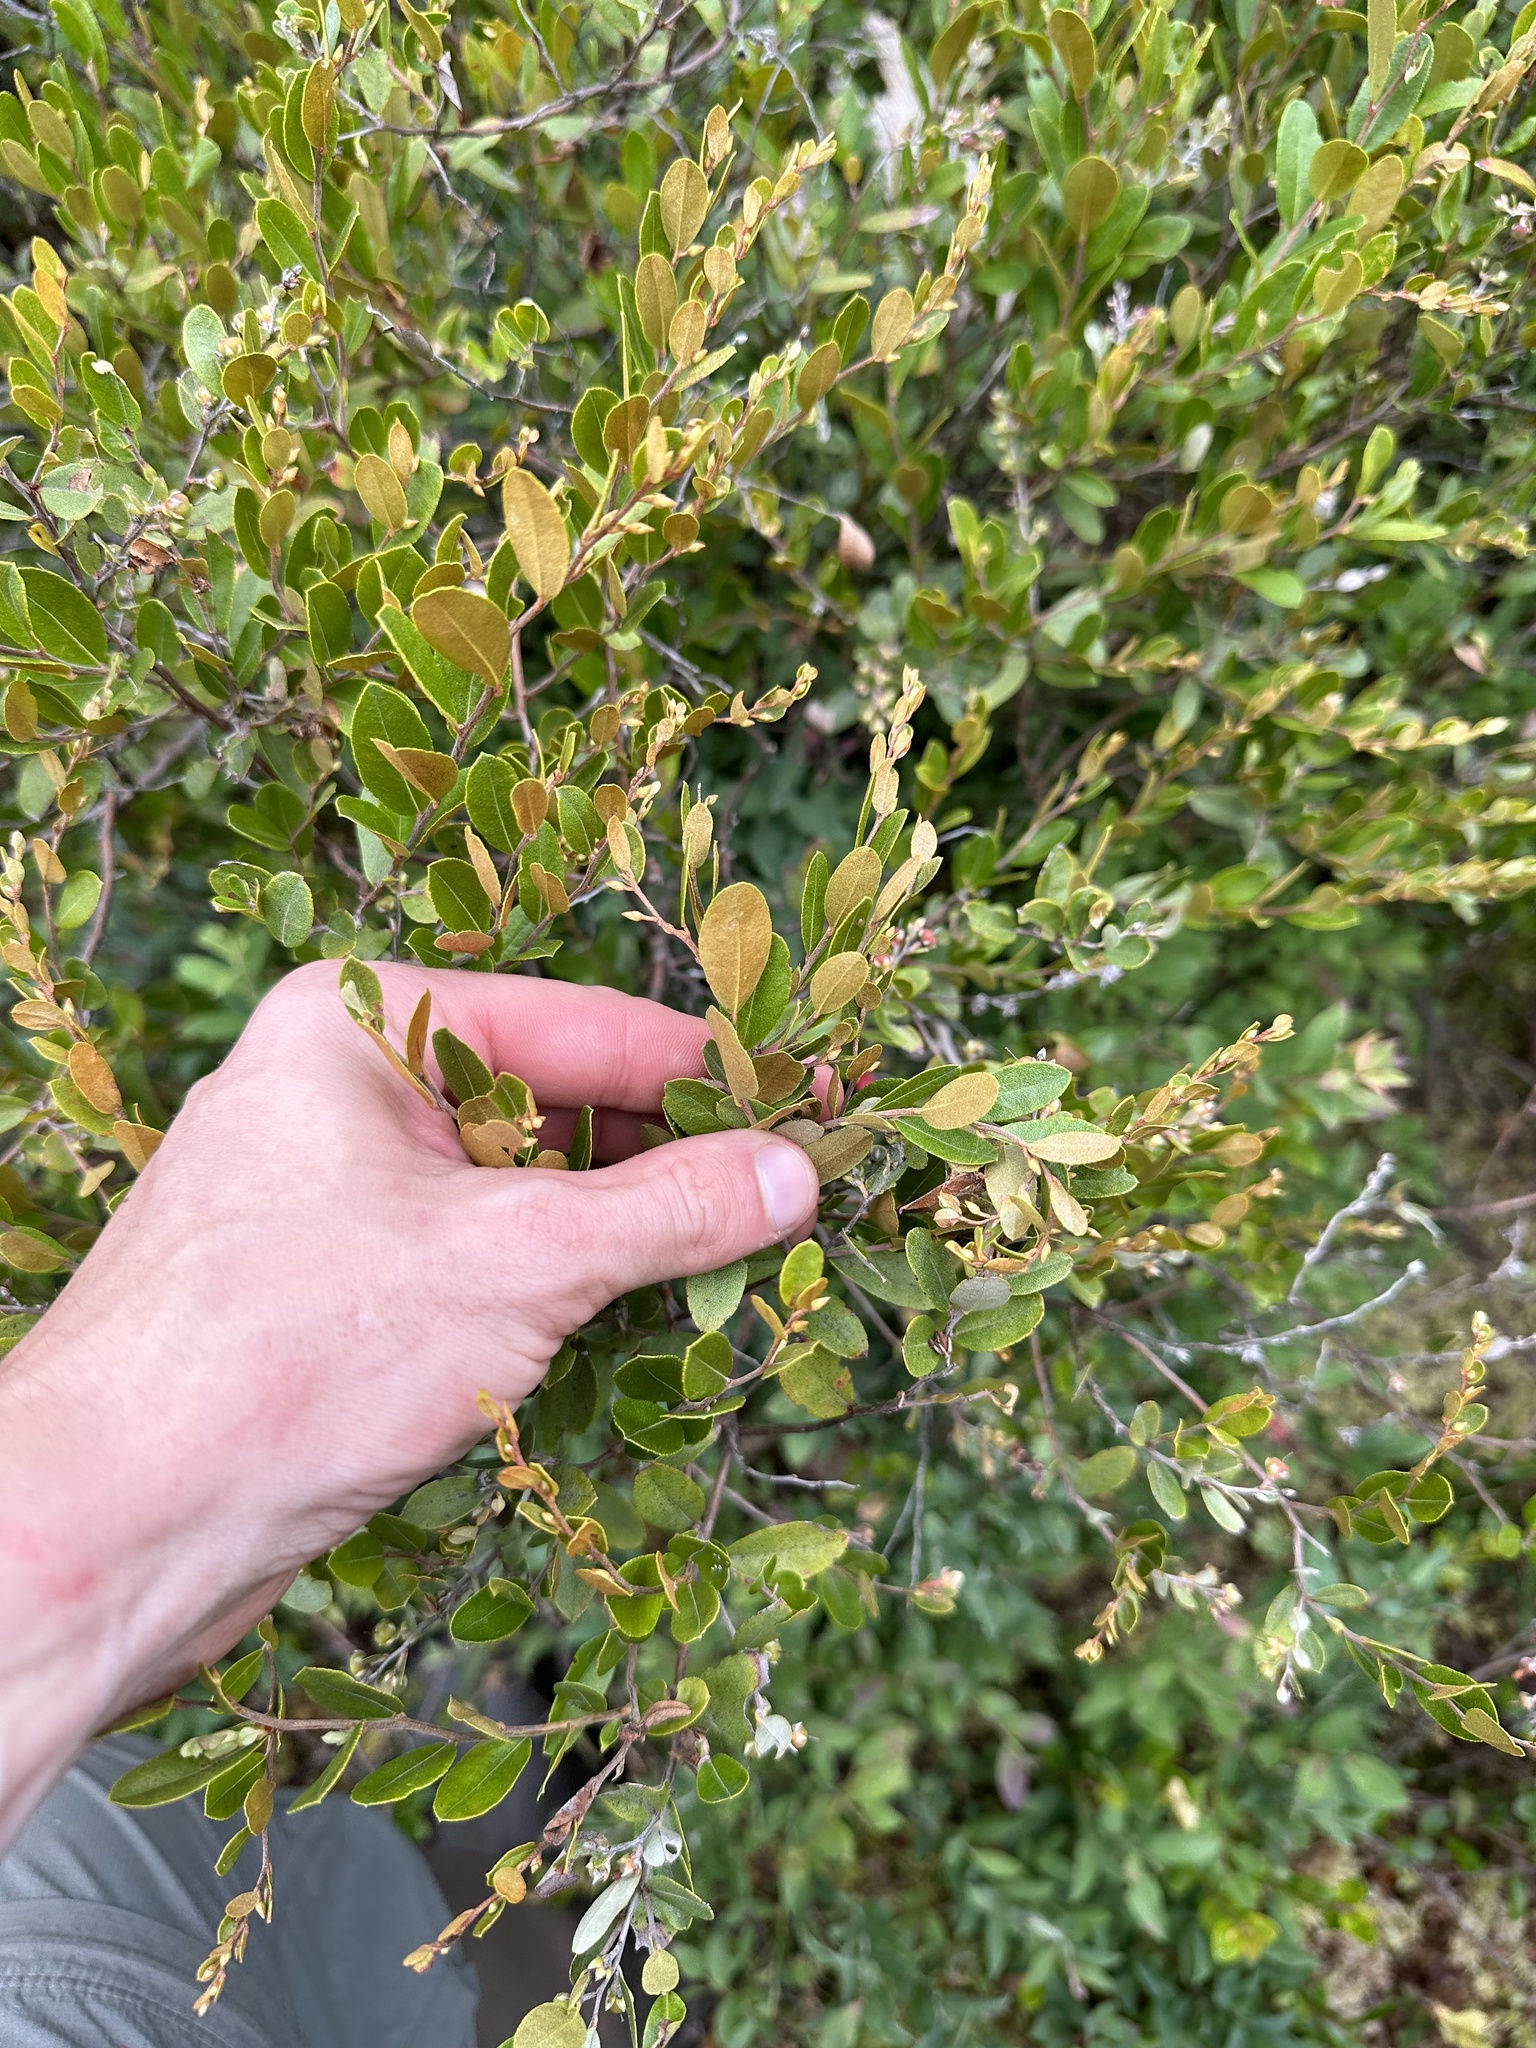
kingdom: Plantae
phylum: Tracheophyta
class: Magnoliopsida
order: Ericales
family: Ericaceae
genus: Chamaedaphne
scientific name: Chamaedaphne calyculata
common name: Leatherleaf
